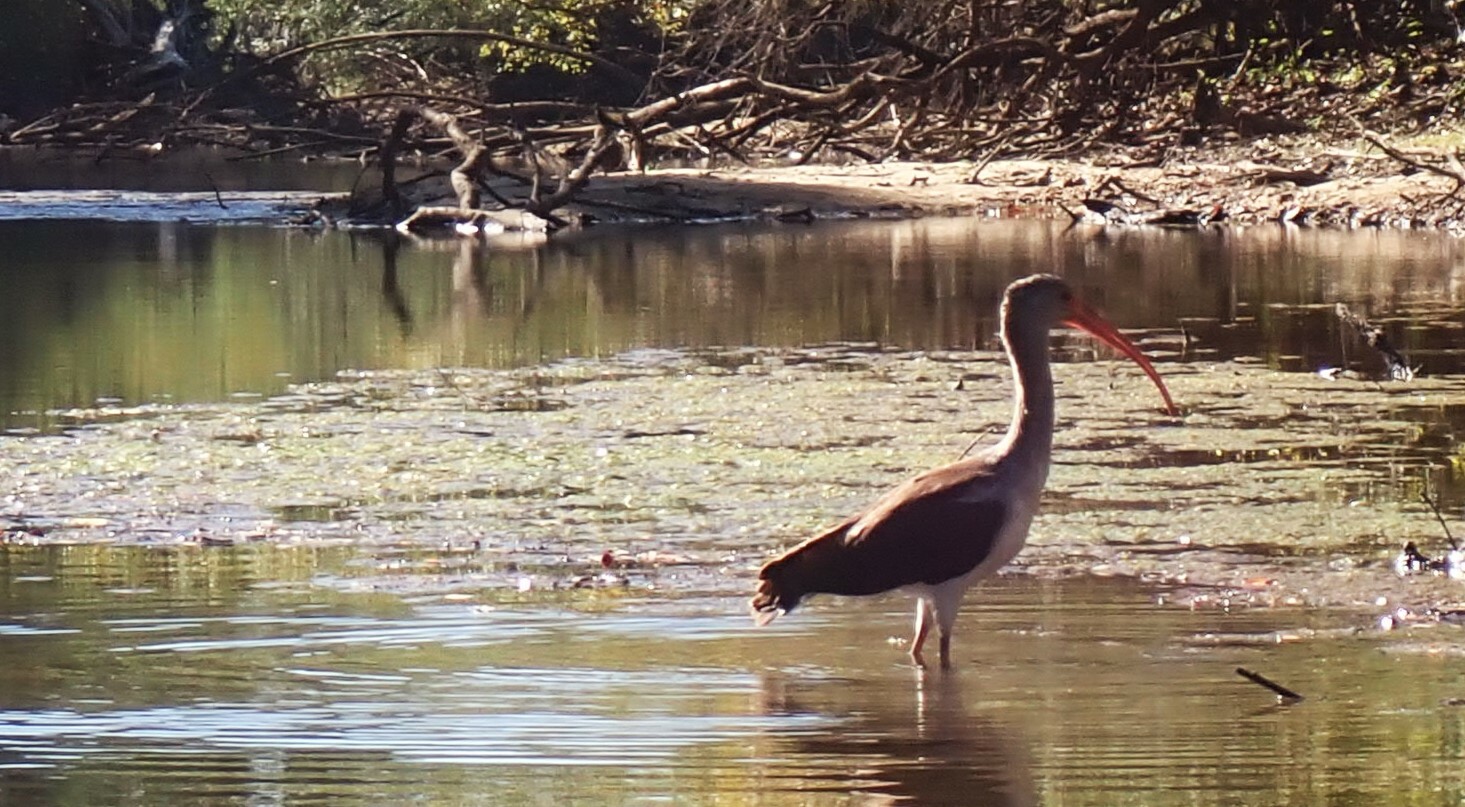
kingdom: Animalia
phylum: Chordata
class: Aves
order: Pelecaniformes
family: Threskiornithidae
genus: Eudocimus
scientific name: Eudocimus albus
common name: White ibis
